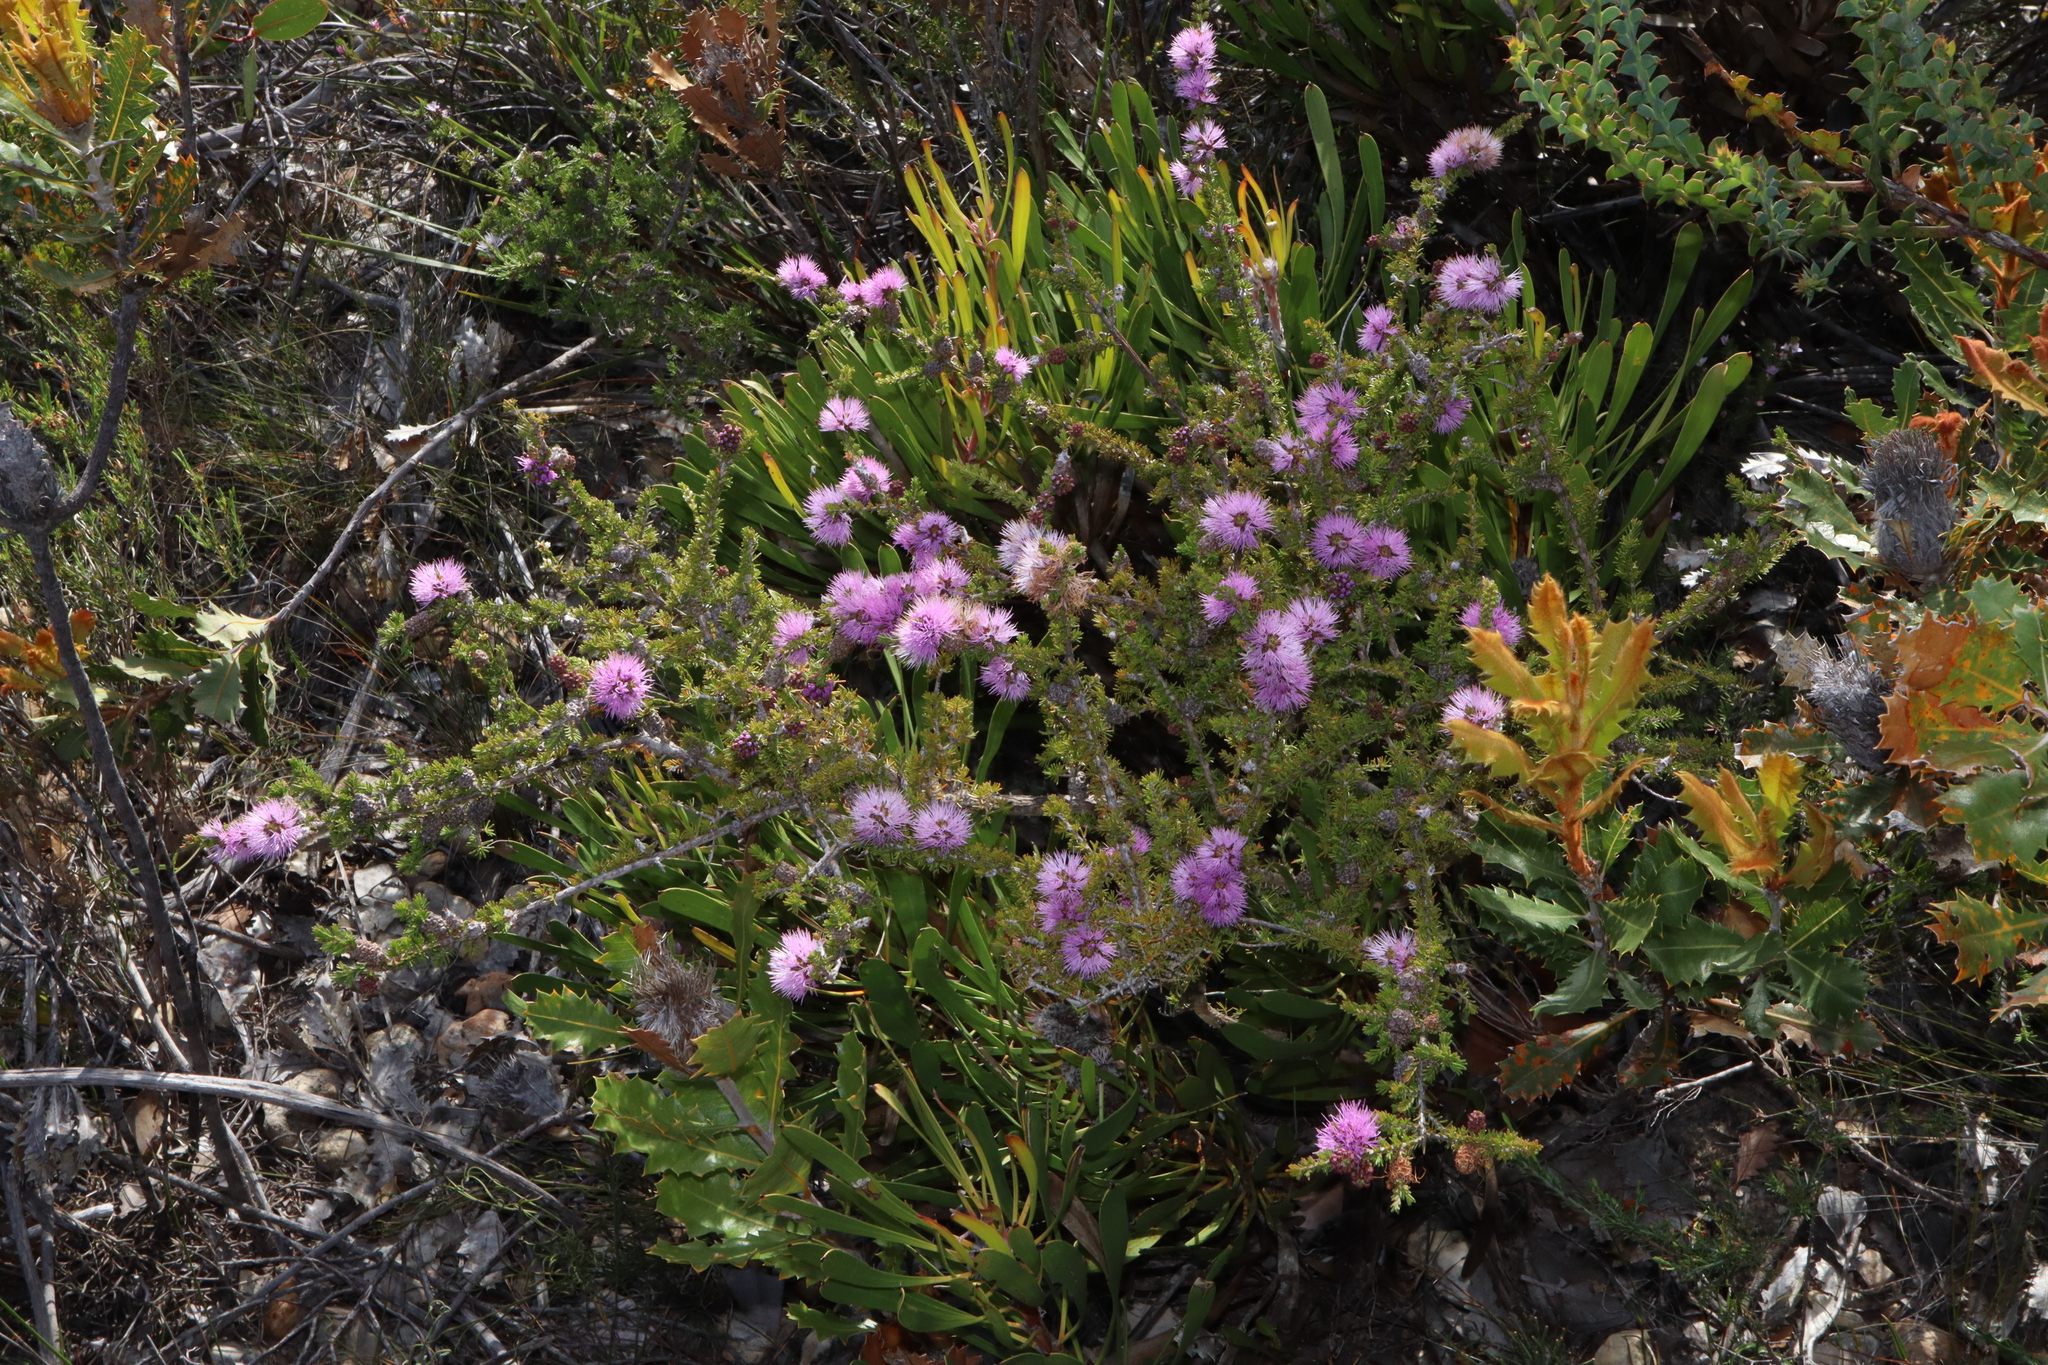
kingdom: Plantae
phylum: Tracheophyta
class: Magnoliopsida
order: Myrtales
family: Myrtaceae
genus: Melaleuca
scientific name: Melaleuca jonesii
